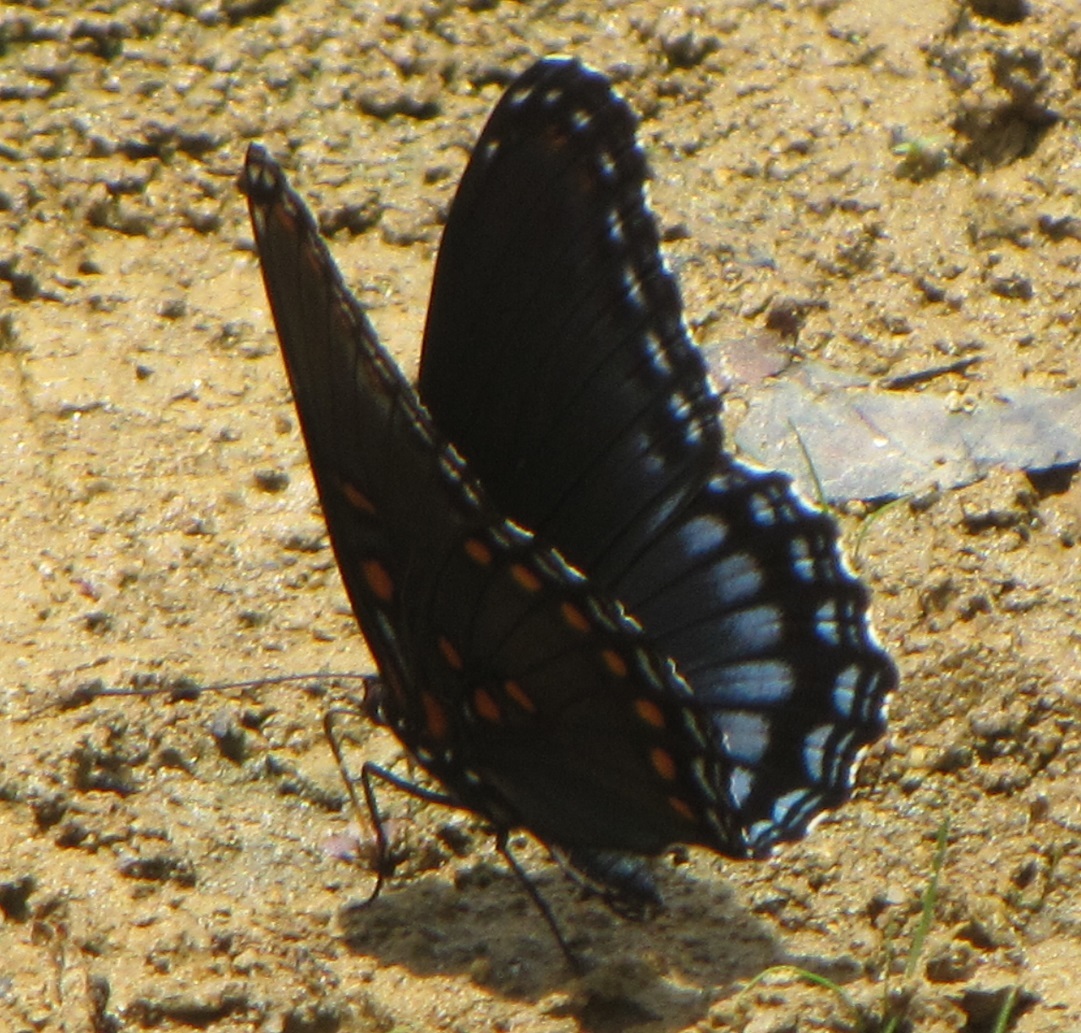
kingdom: Animalia
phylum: Arthropoda
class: Insecta
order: Lepidoptera
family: Nymphalidae
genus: Limenitis
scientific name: Limenitis astyanax
